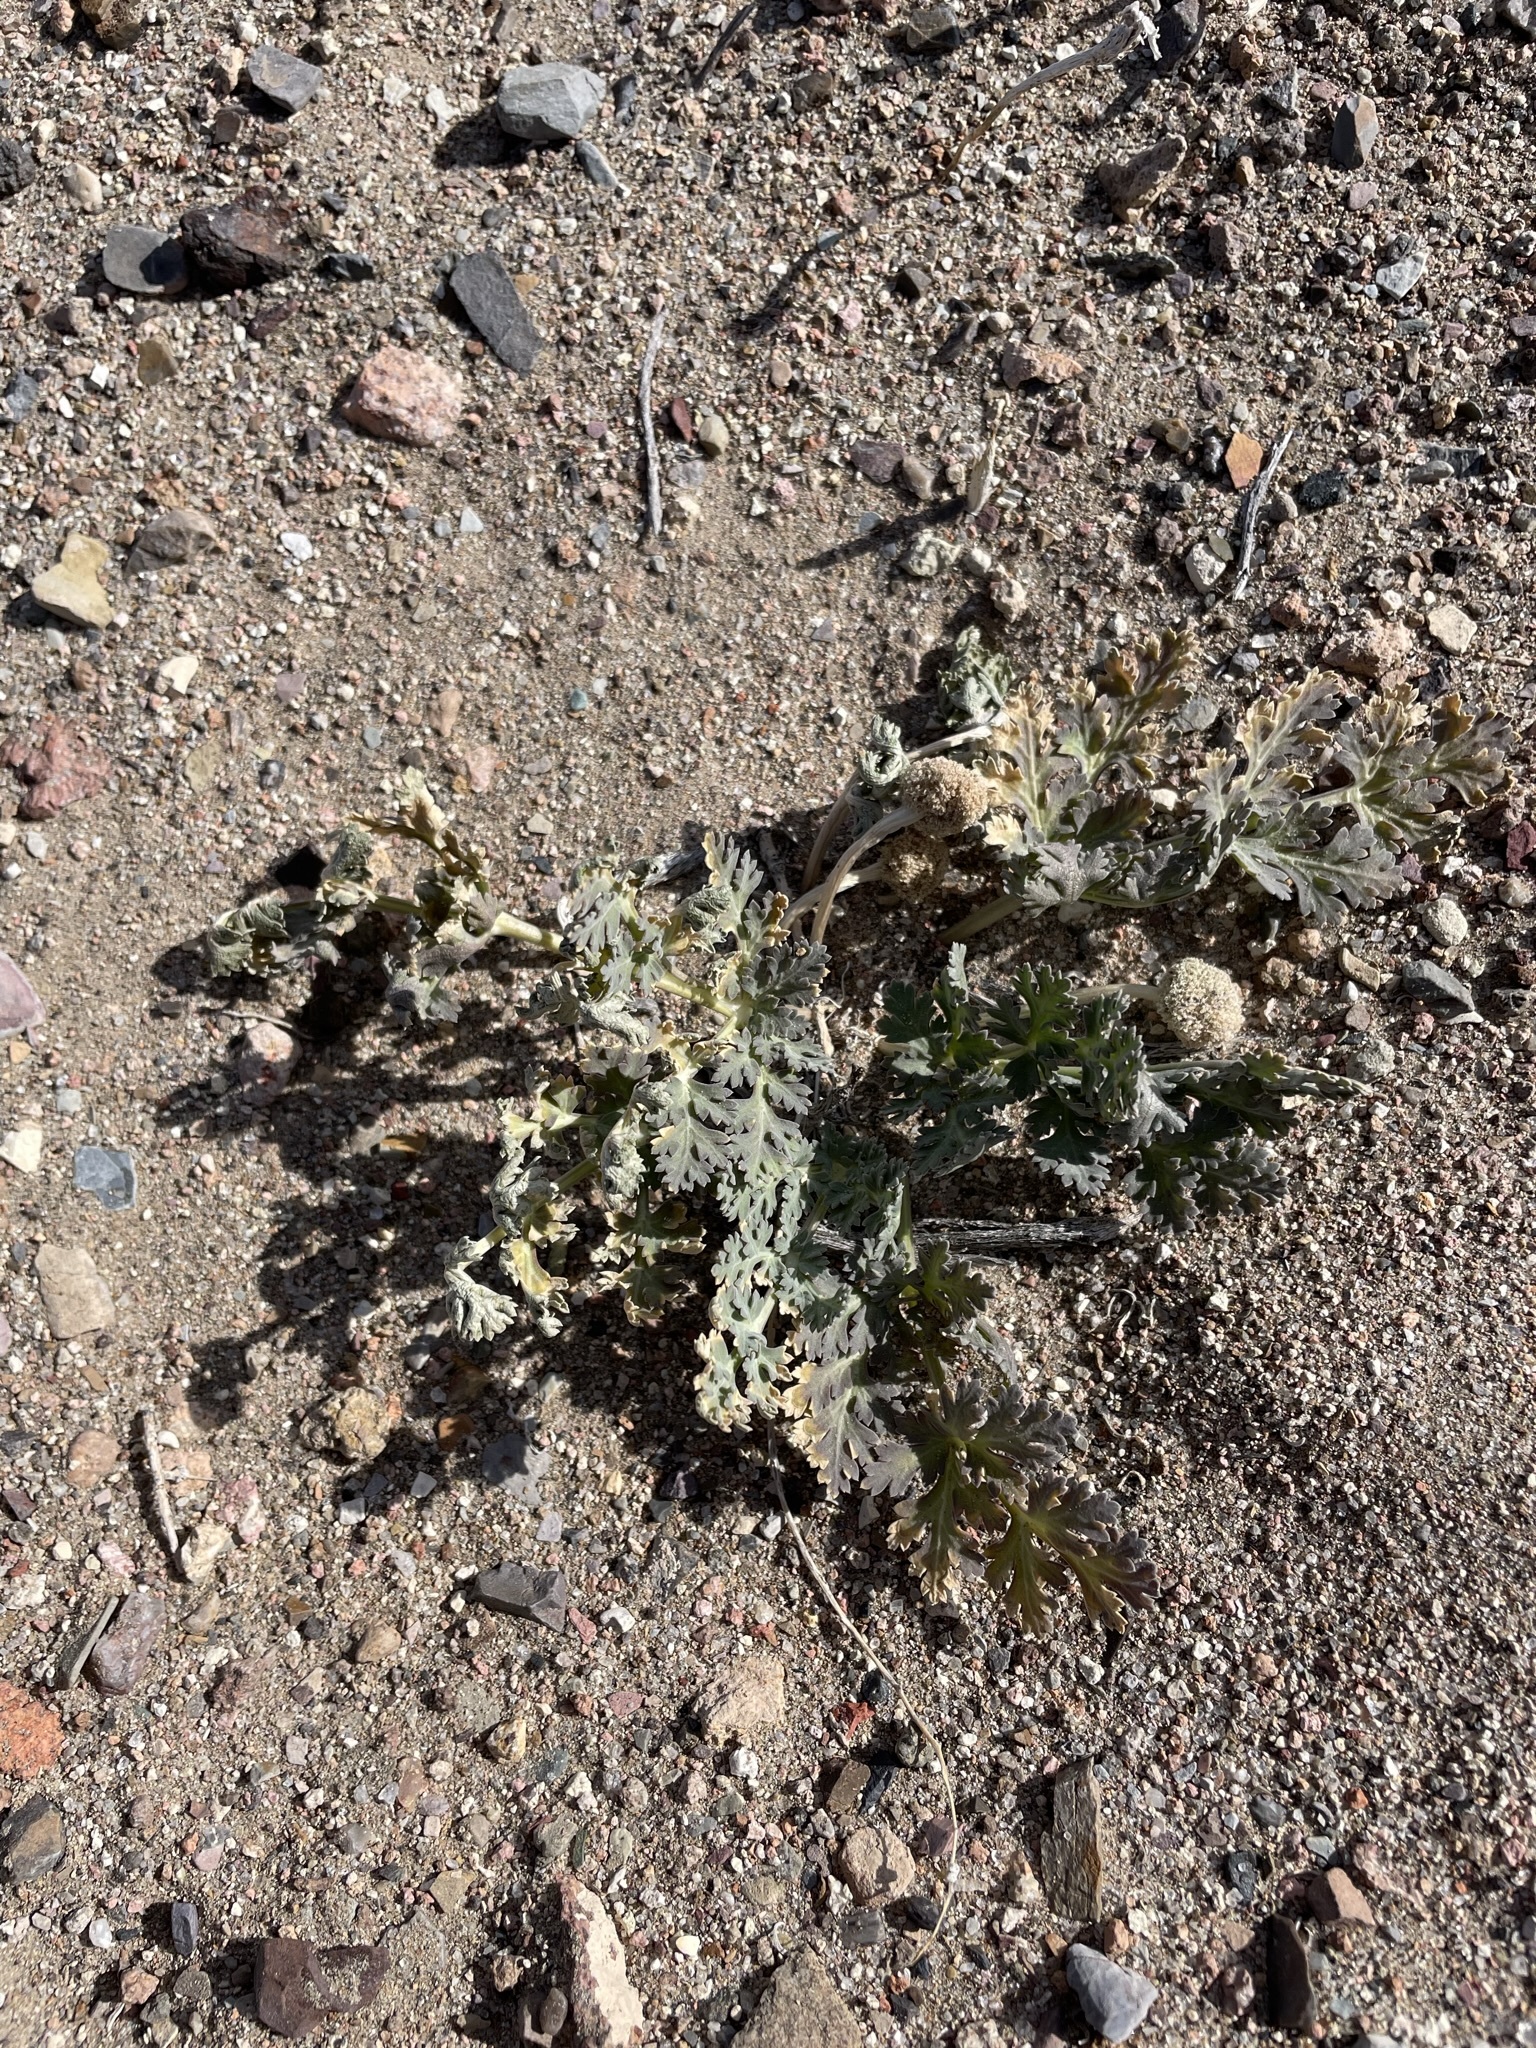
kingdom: Plantae
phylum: Tracheophyta
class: Magnoliopsida
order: Apiales
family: Apiaceae
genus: Cymopterus
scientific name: Cymopterus globosus
